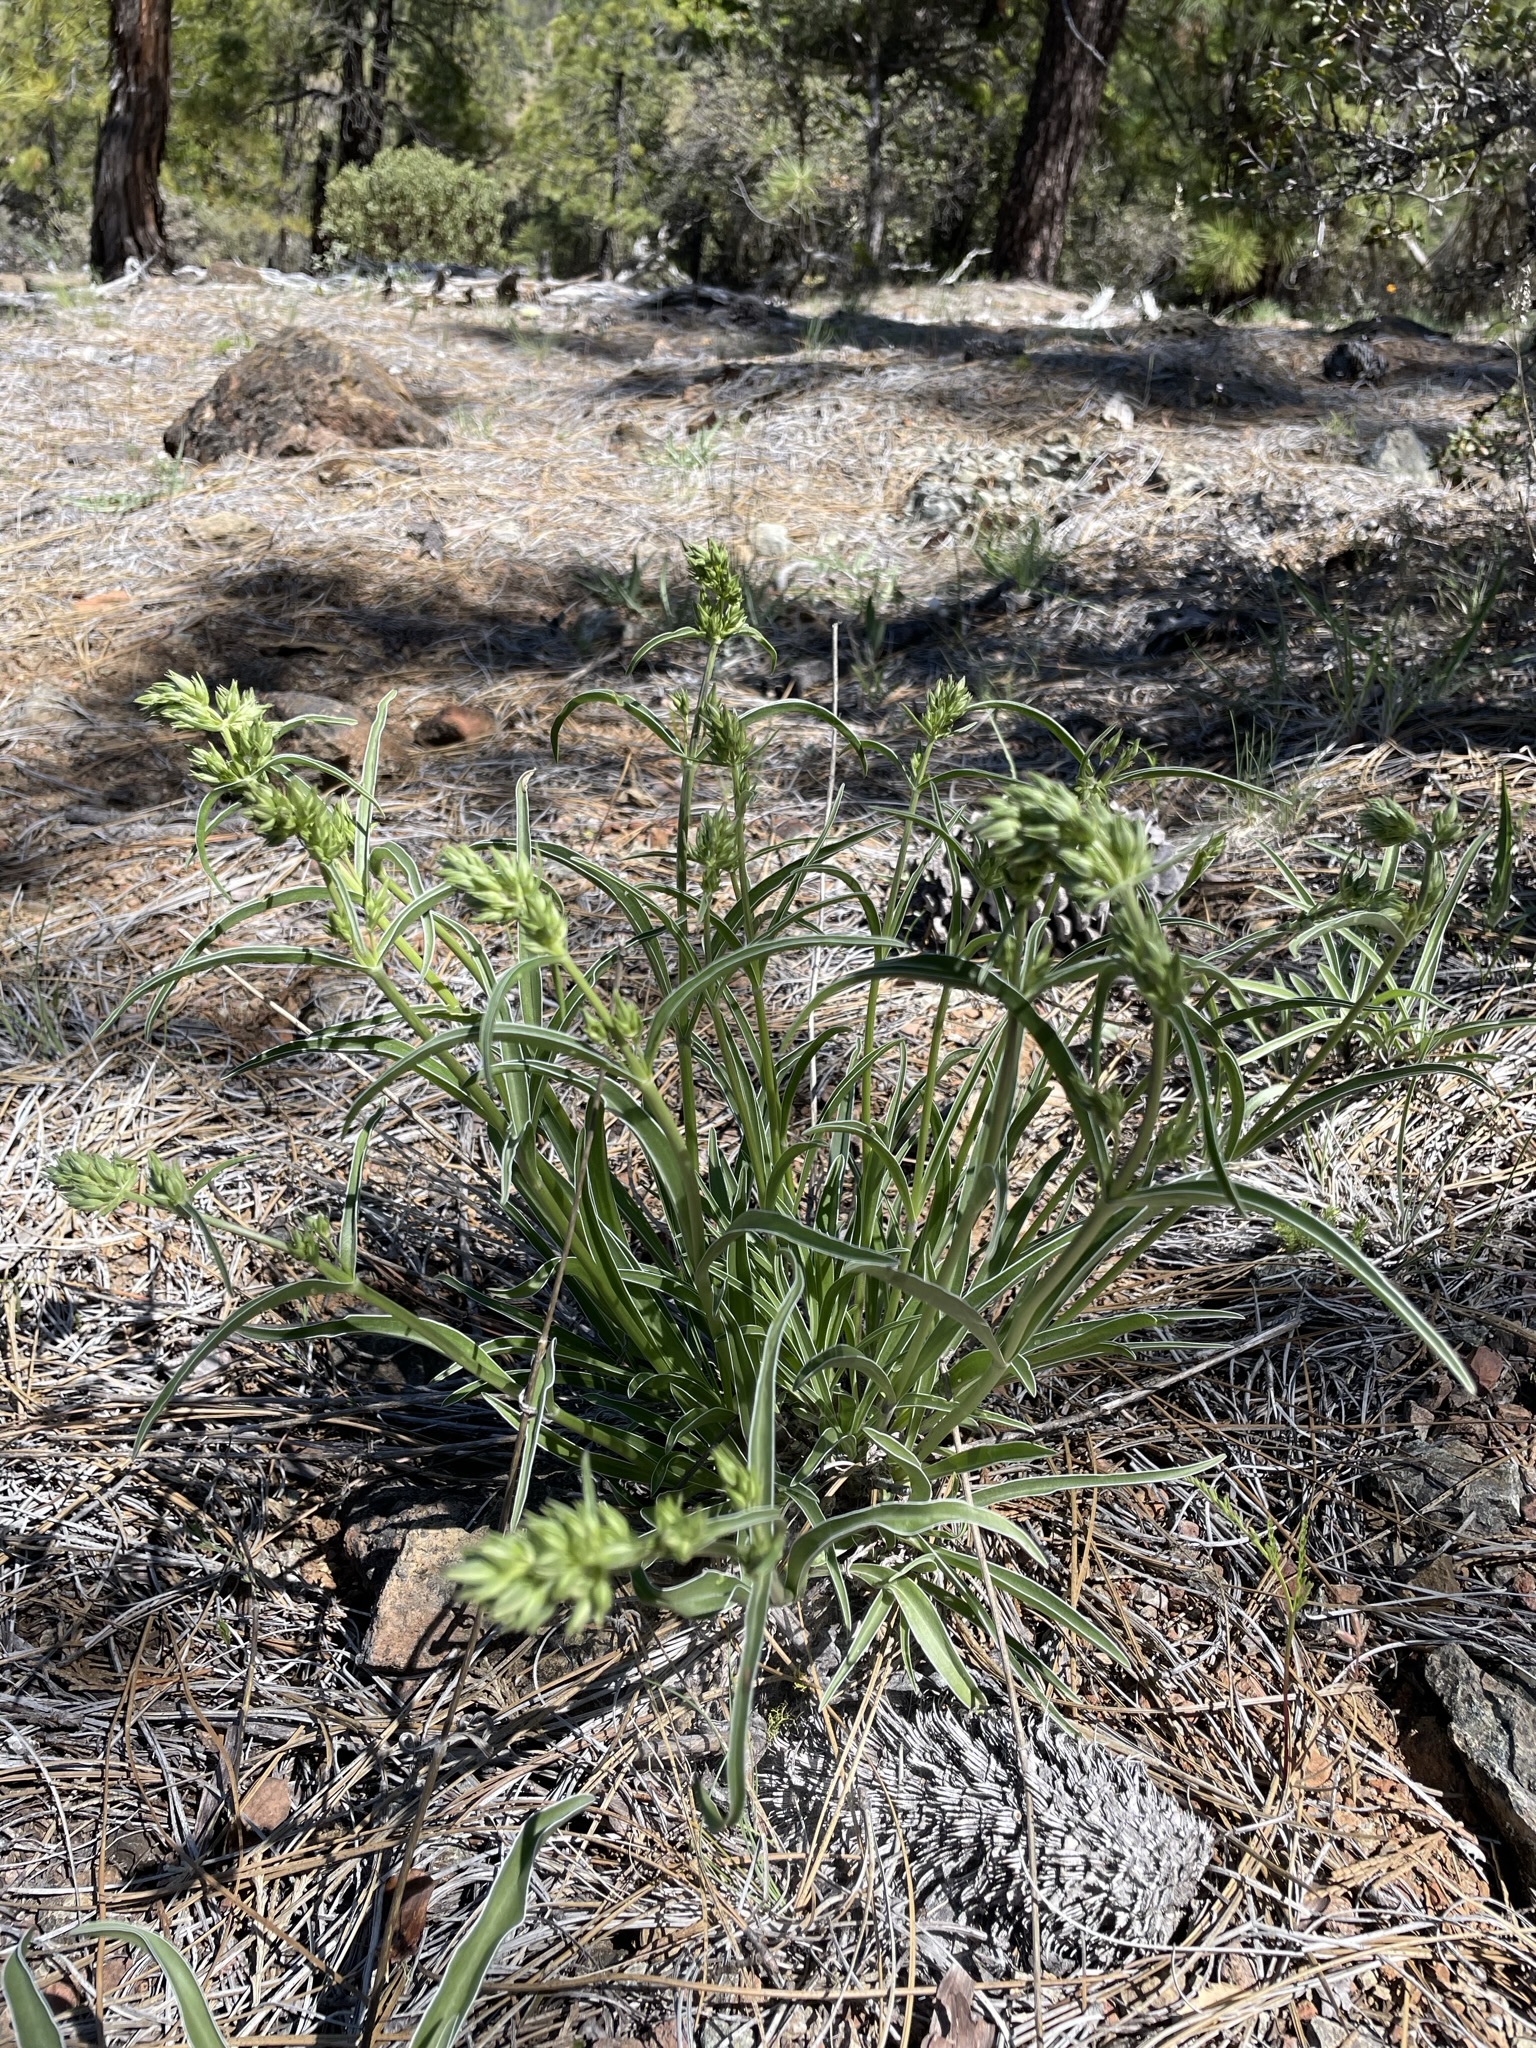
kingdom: Plantae
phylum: Tracheophyta
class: Magnoliopsida
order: Gentianales
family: Gentianaceae
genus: Frasera
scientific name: Frasera albicaulis
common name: Cusick's frasera
